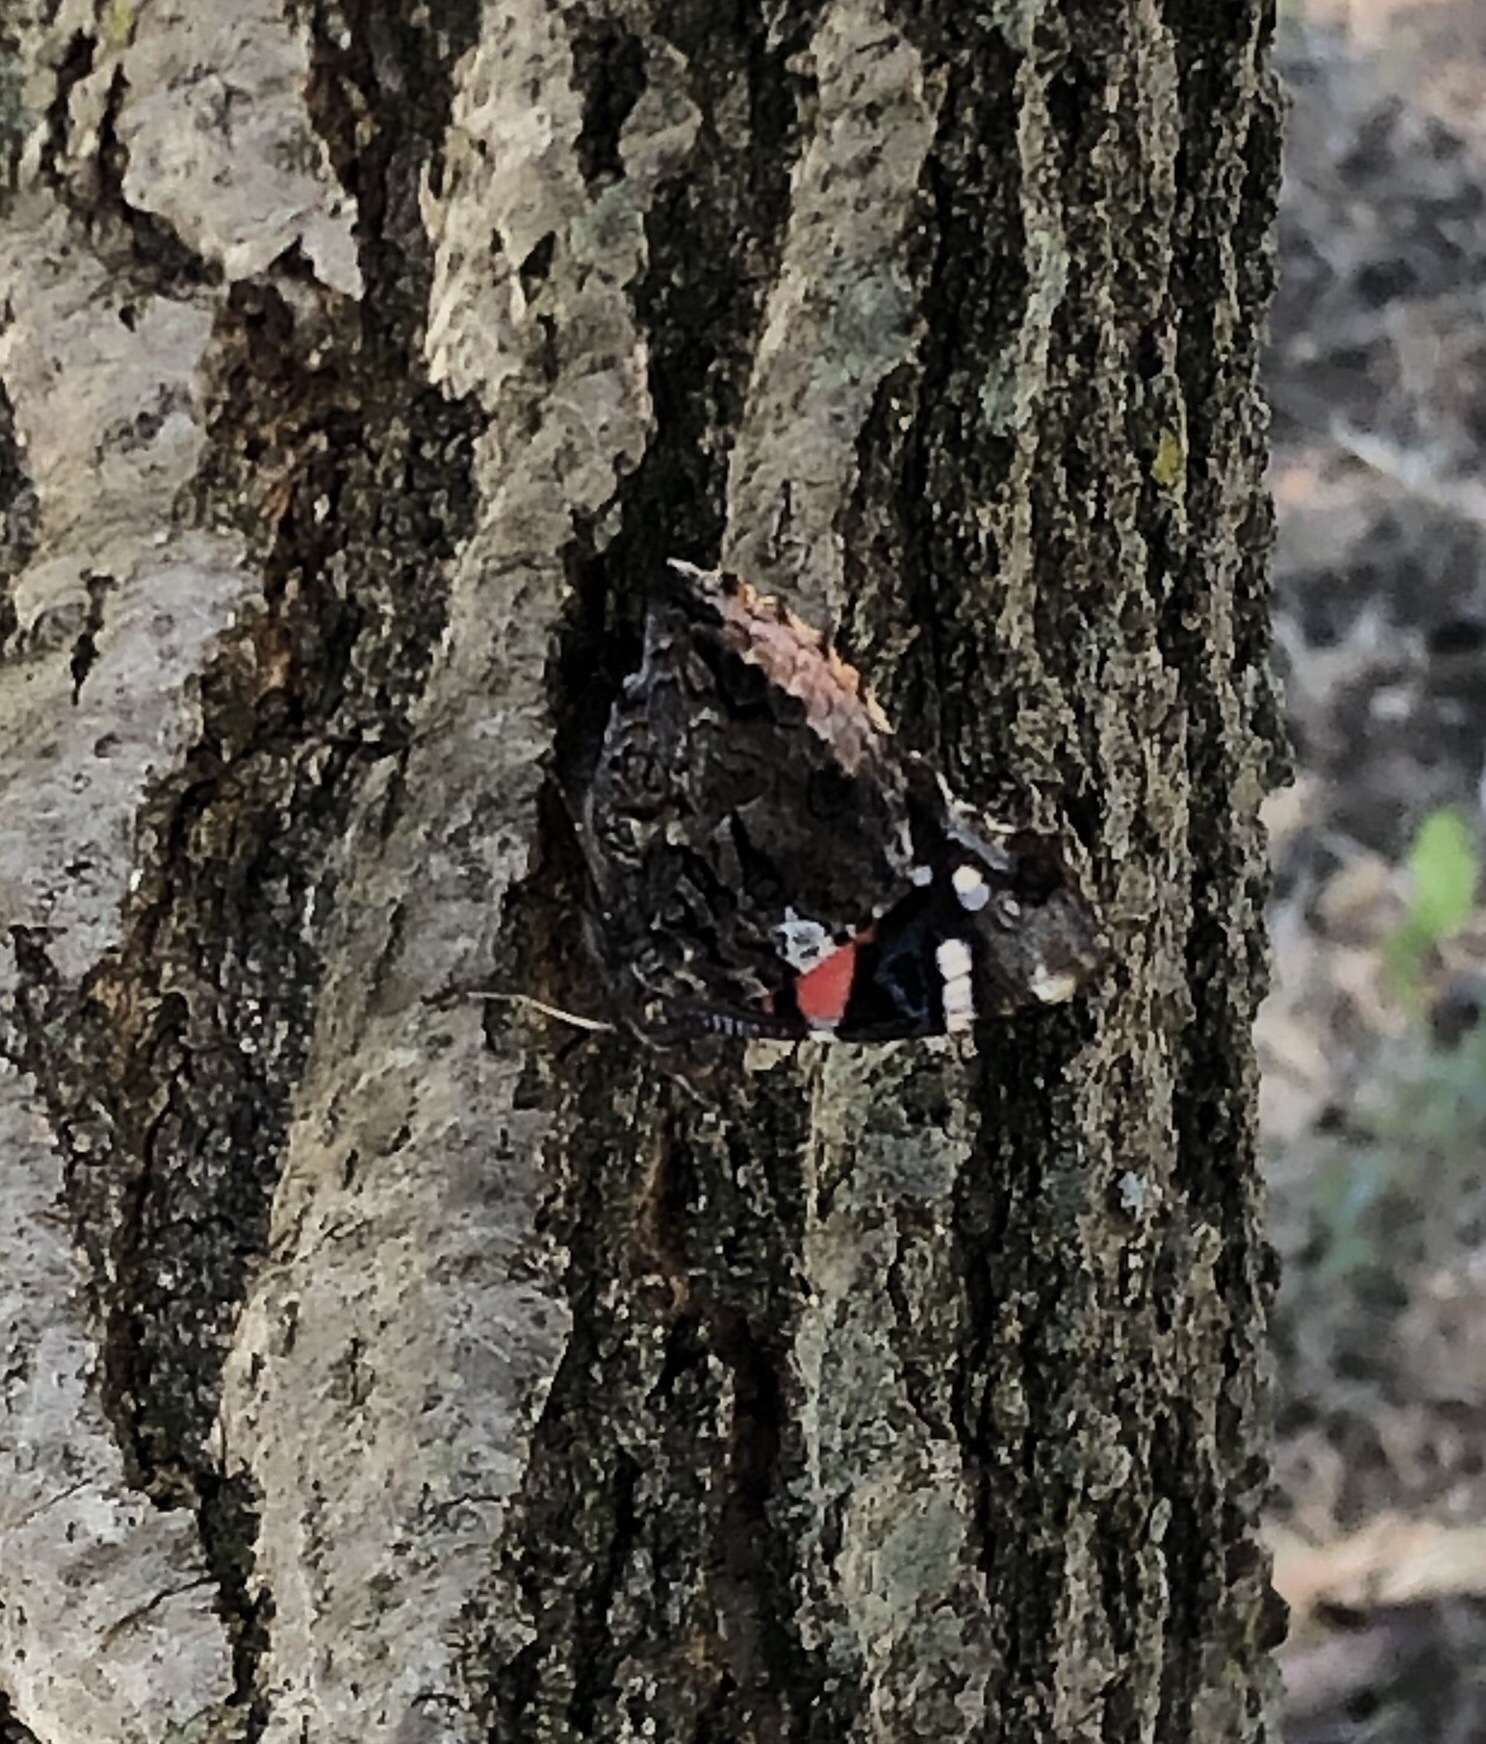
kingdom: Animalia
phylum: Arthropoda
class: Insecta
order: Lepidoptera
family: Nymphalidae
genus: Vanessa
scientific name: Vanessa atalanta
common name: Red admiral
